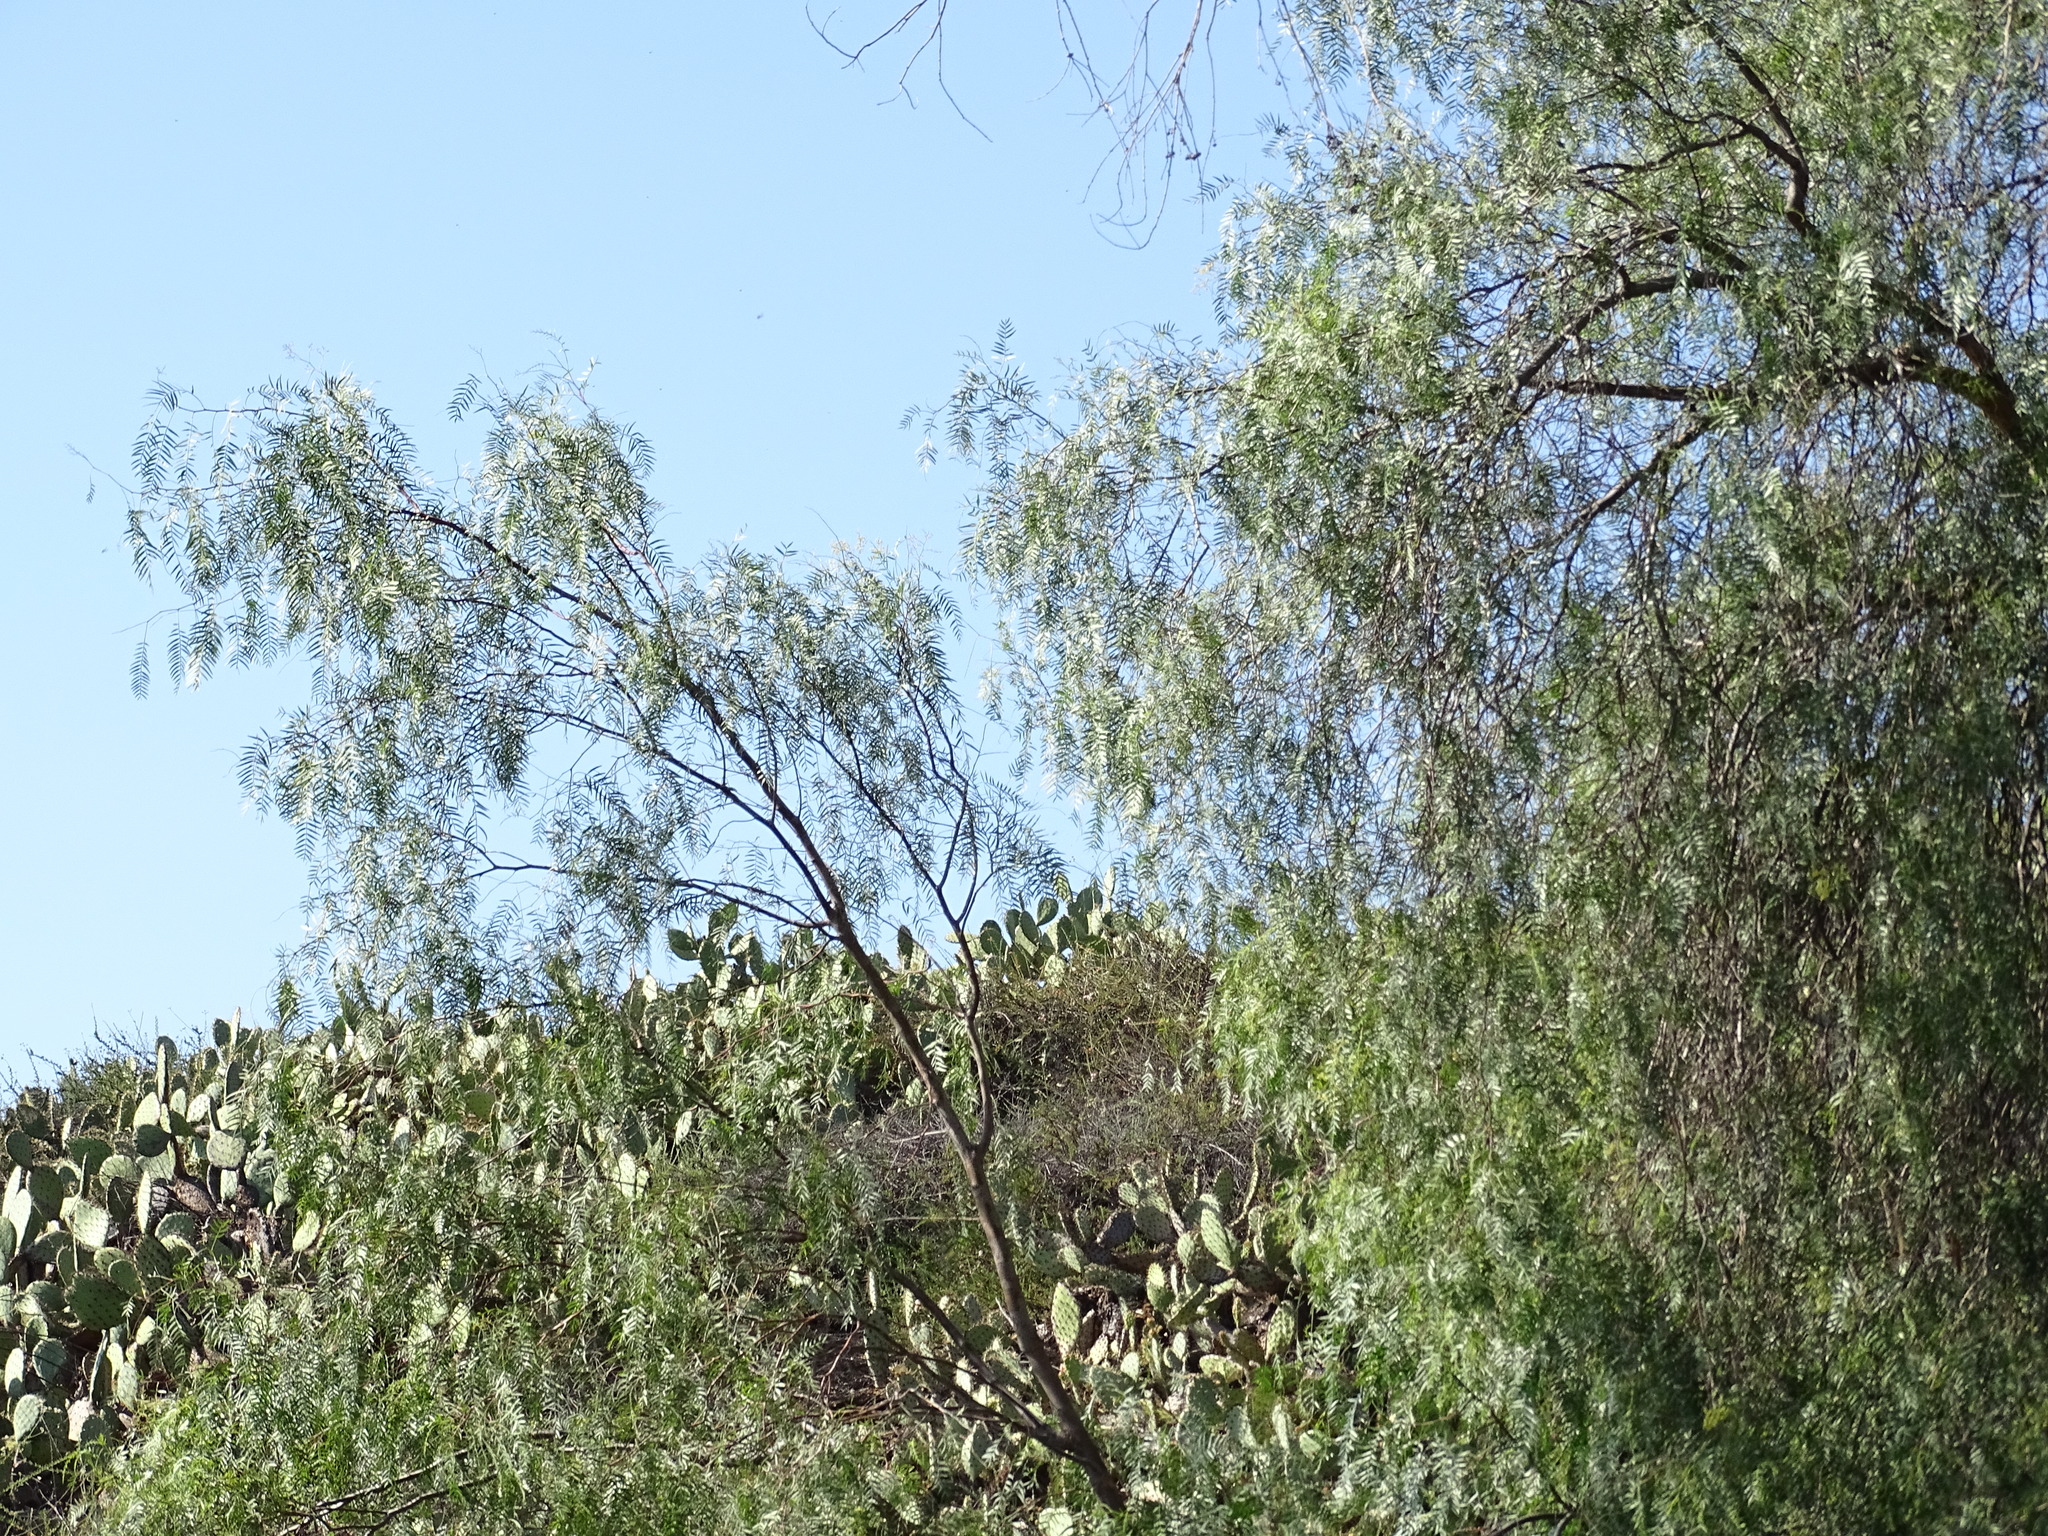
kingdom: Plantae
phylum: Tracheophyta
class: Magnoliopsida
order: Sapindales
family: Anacardiaceae
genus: Schinus
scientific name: Schinus molle
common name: Peruvian peppertree
